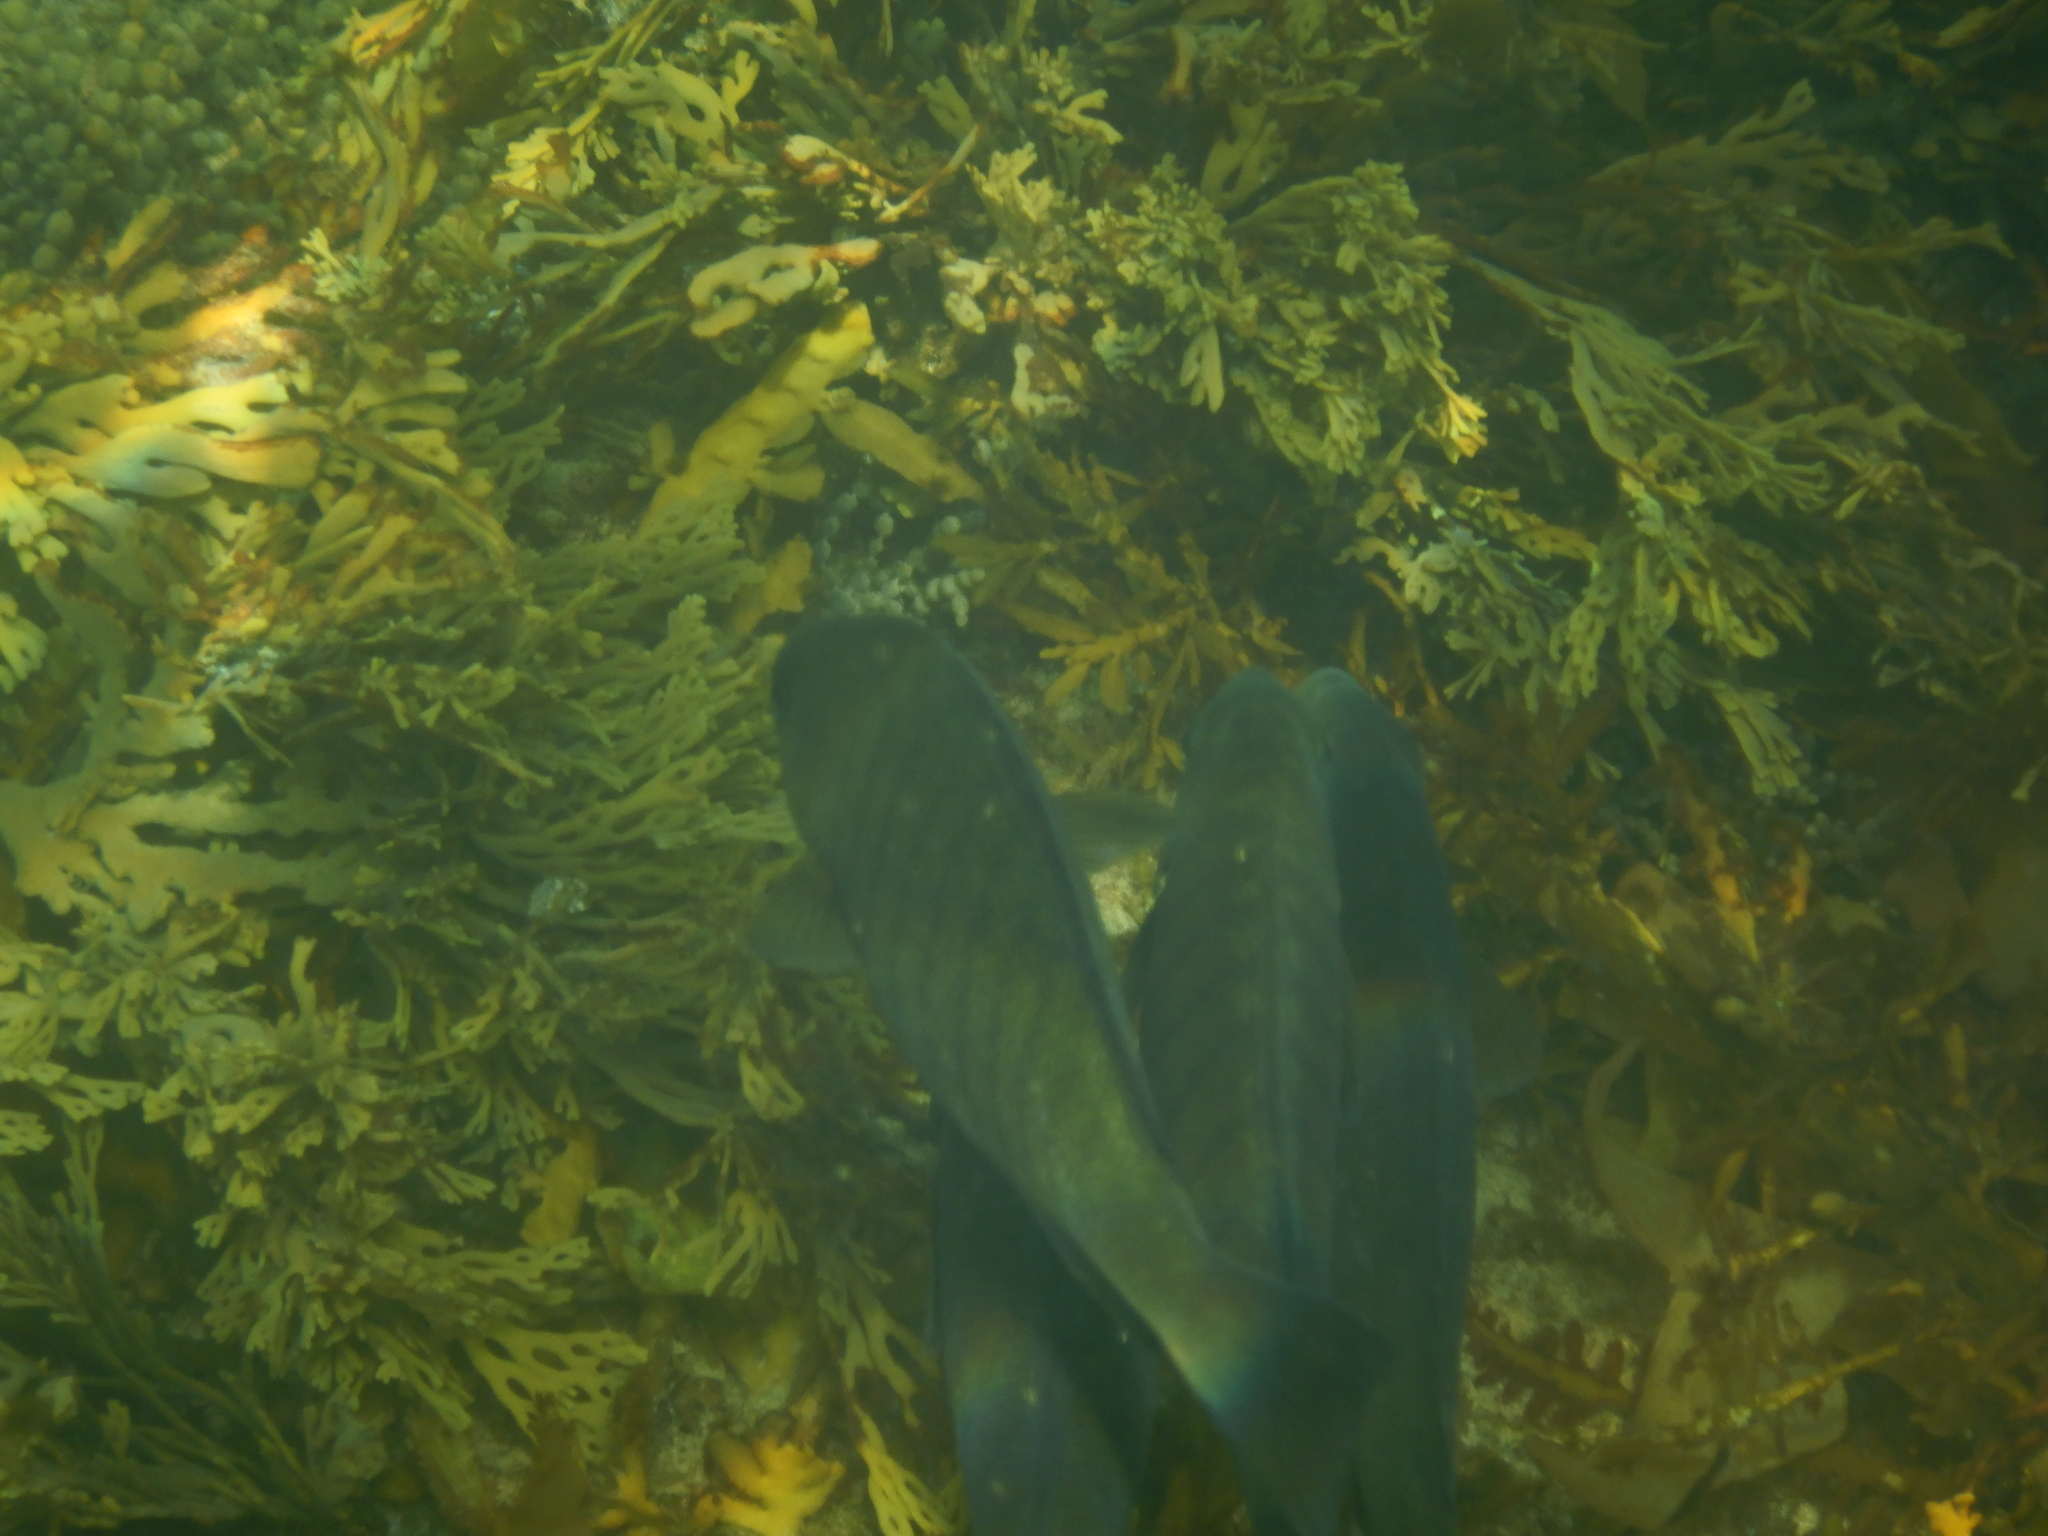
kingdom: Animalia
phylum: Chordata
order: Perciformes
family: Kyphosidae
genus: Girella
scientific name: Girella tricuspidata
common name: Parore
